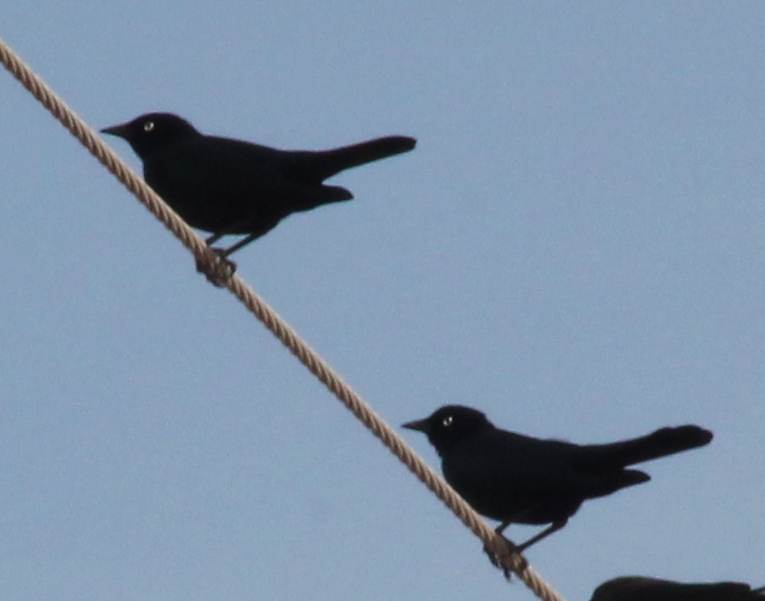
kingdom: Animalia
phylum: Chordata
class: Aves
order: Passeriformes
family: Icteridae
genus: Euphagus
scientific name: Euphagus cyanocephalus
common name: Brewer's blackbird
